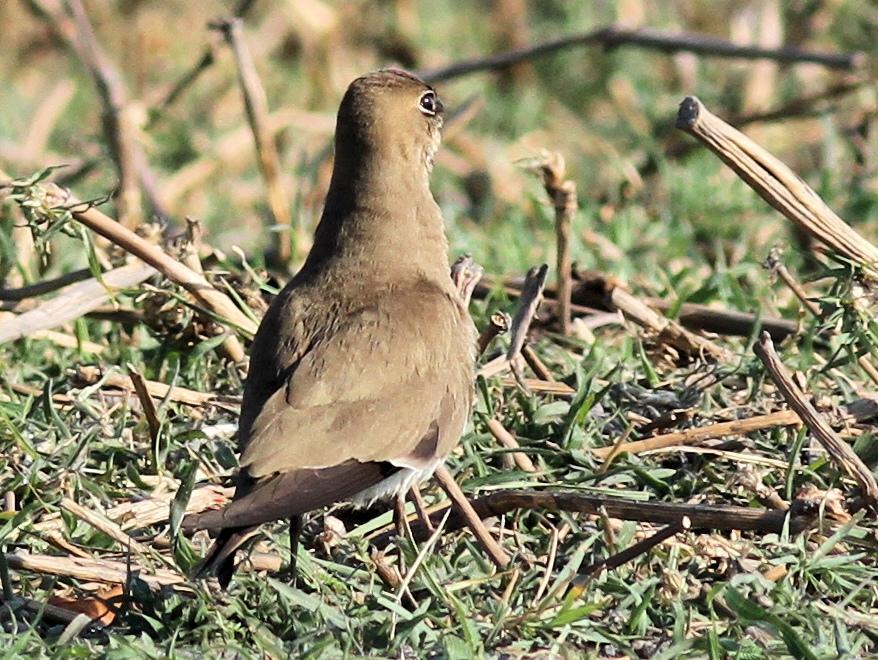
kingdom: Animalia
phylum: Chordata
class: Aves
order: Charadriiformes
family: Glareolidae
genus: Glareola
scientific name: Glareola pratincola
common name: Collared pratincole
